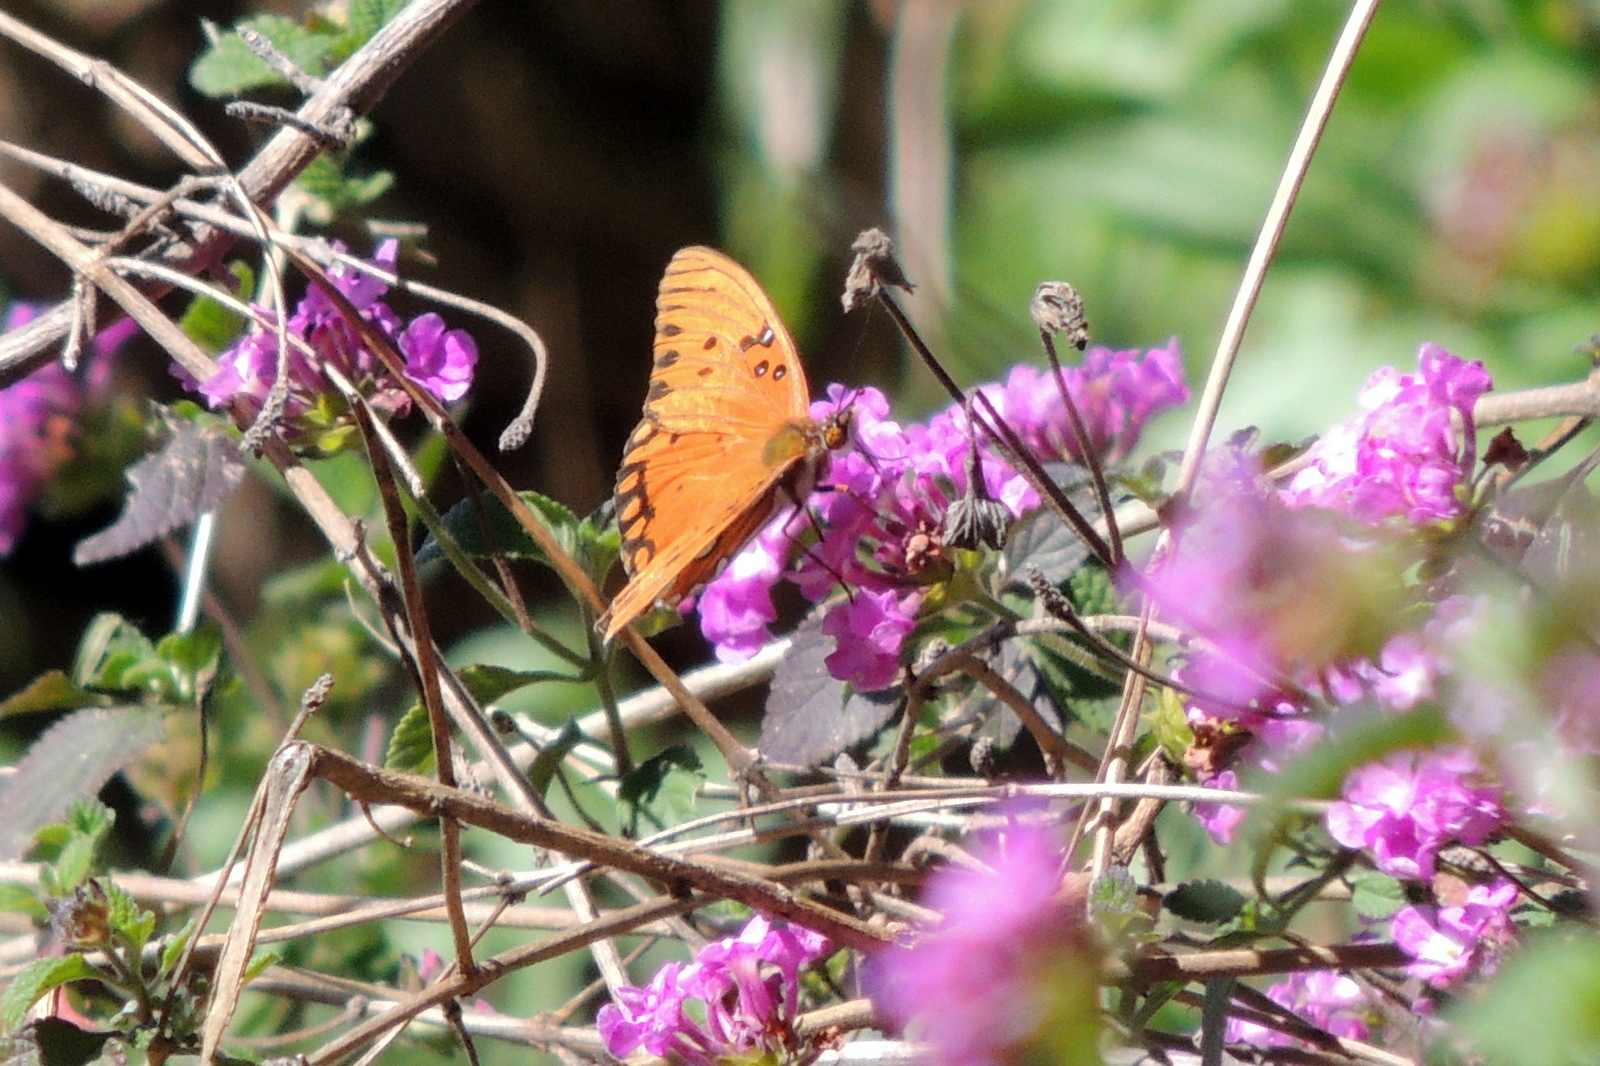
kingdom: Animalia
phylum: Arthropoda
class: Insecta
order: Lepidoptera
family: Nymphalidae
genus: Dione
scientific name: Dione vanillae
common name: Gulf fritillary
